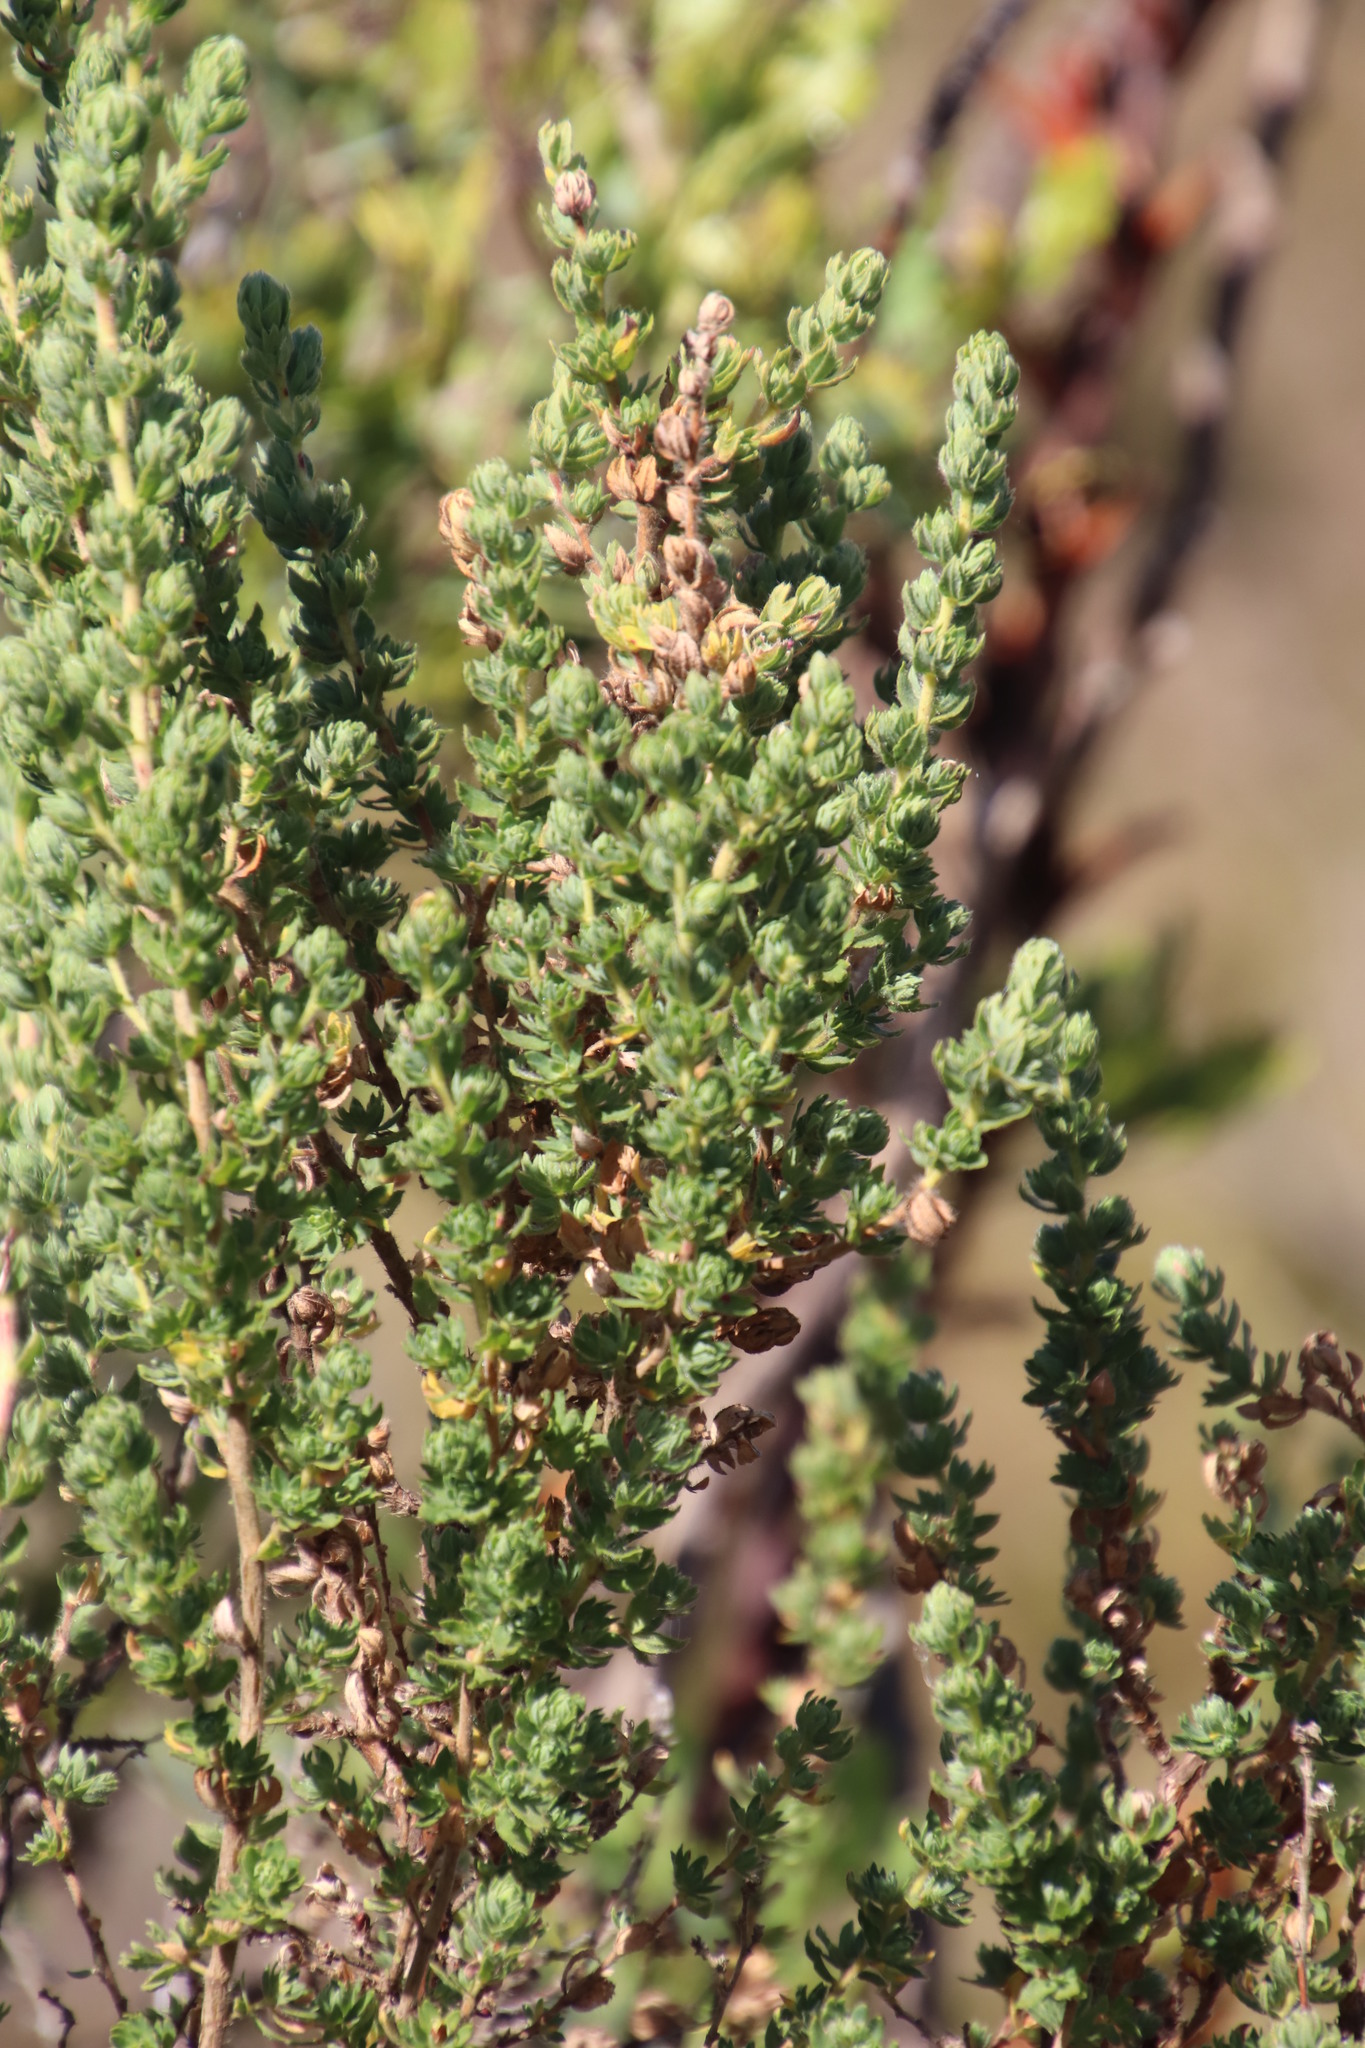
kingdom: Plantae
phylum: Tracheophyta
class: Magnoliopsida
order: Rosales
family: Rosaceae
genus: Cliffortia
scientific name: Cliffortia polygonifolia
